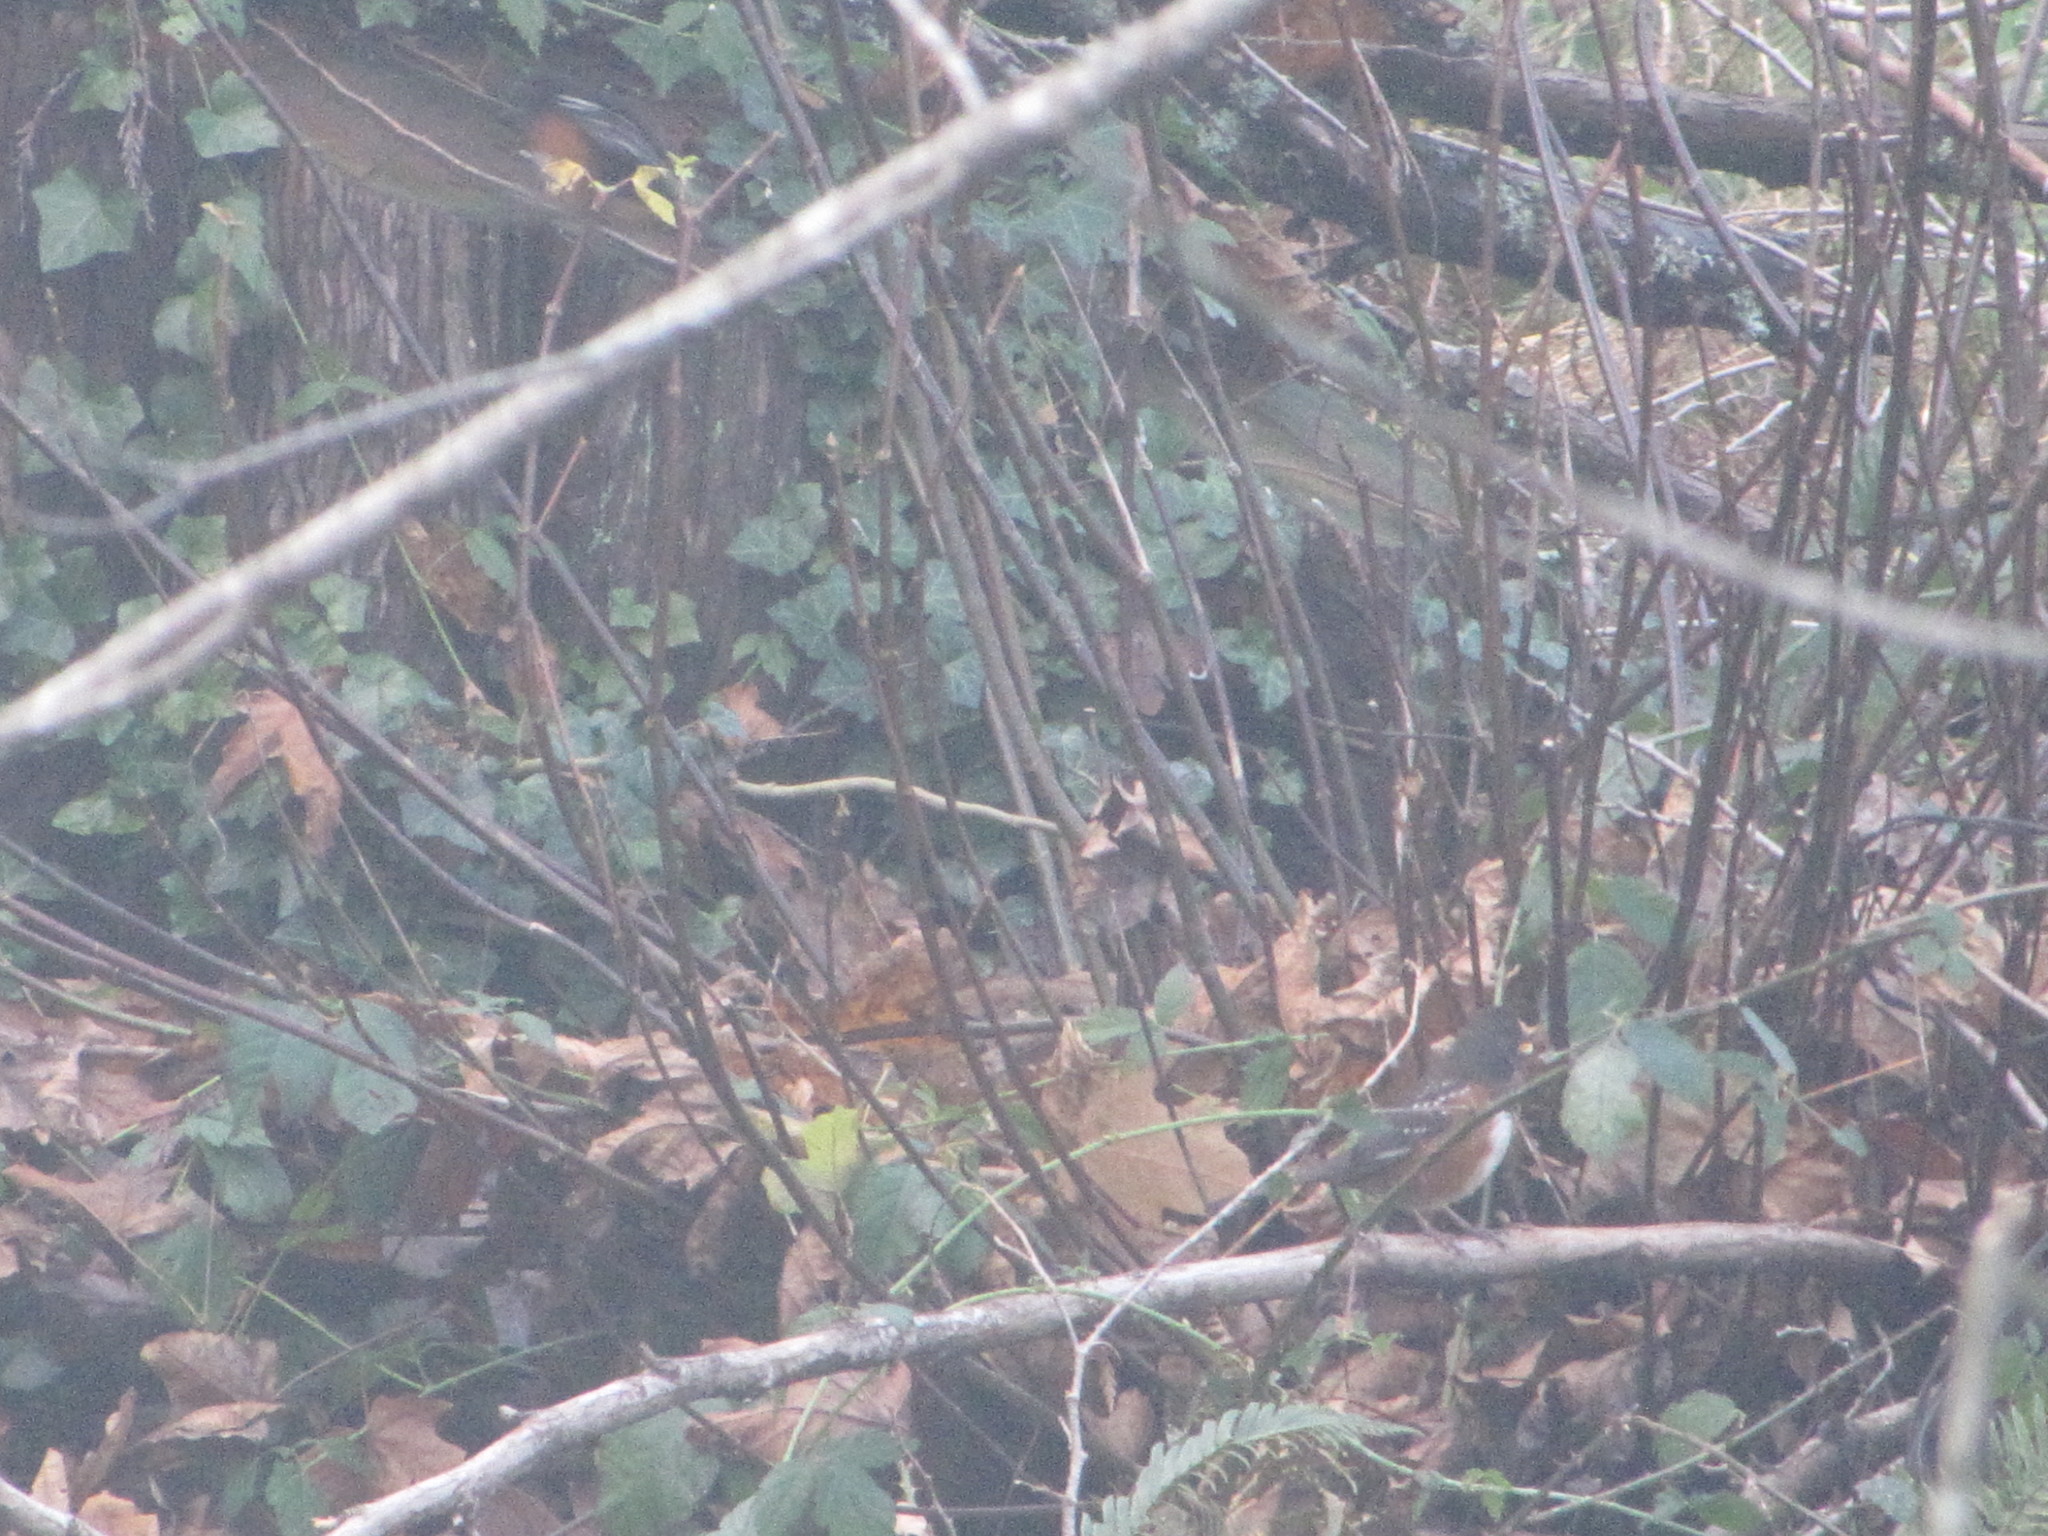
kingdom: Animalia
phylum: Chordata
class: Aves
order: Passeriformes
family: Passerellidae
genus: Pipilo
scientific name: Pipilo maculatus
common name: Spotted towhee
